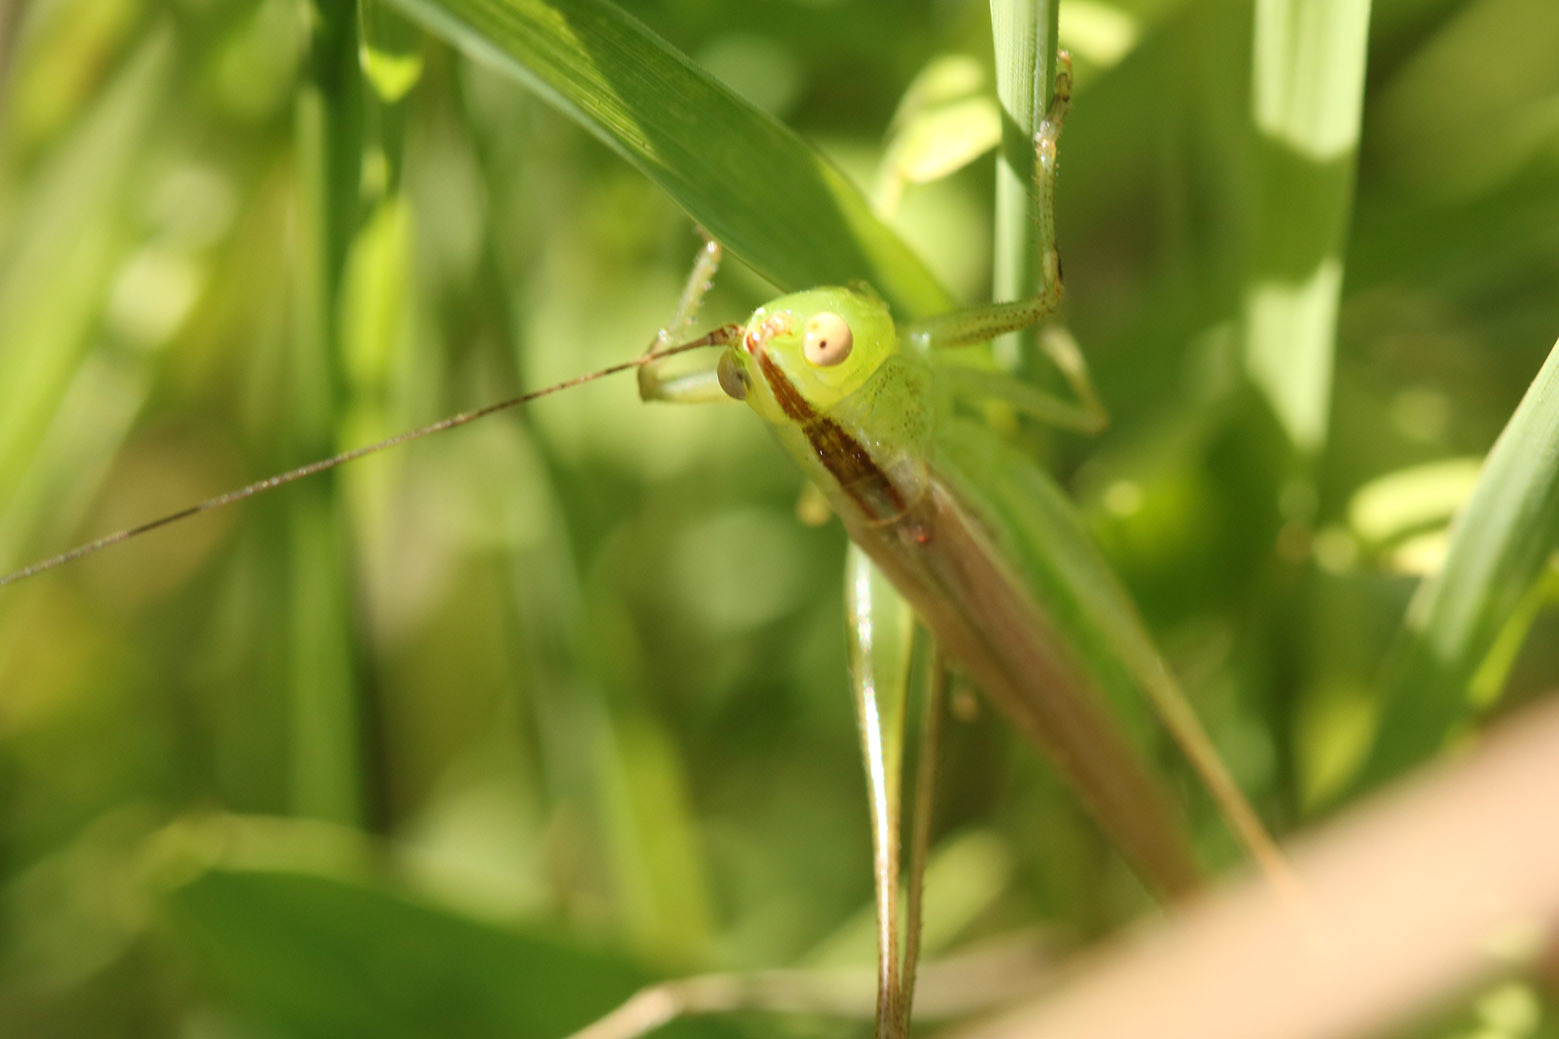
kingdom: Animalia
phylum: Arthropoda
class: Insecta
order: Orthoptera
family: Tettigoniidae
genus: Conocephalus
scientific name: Conocephalus longipes
